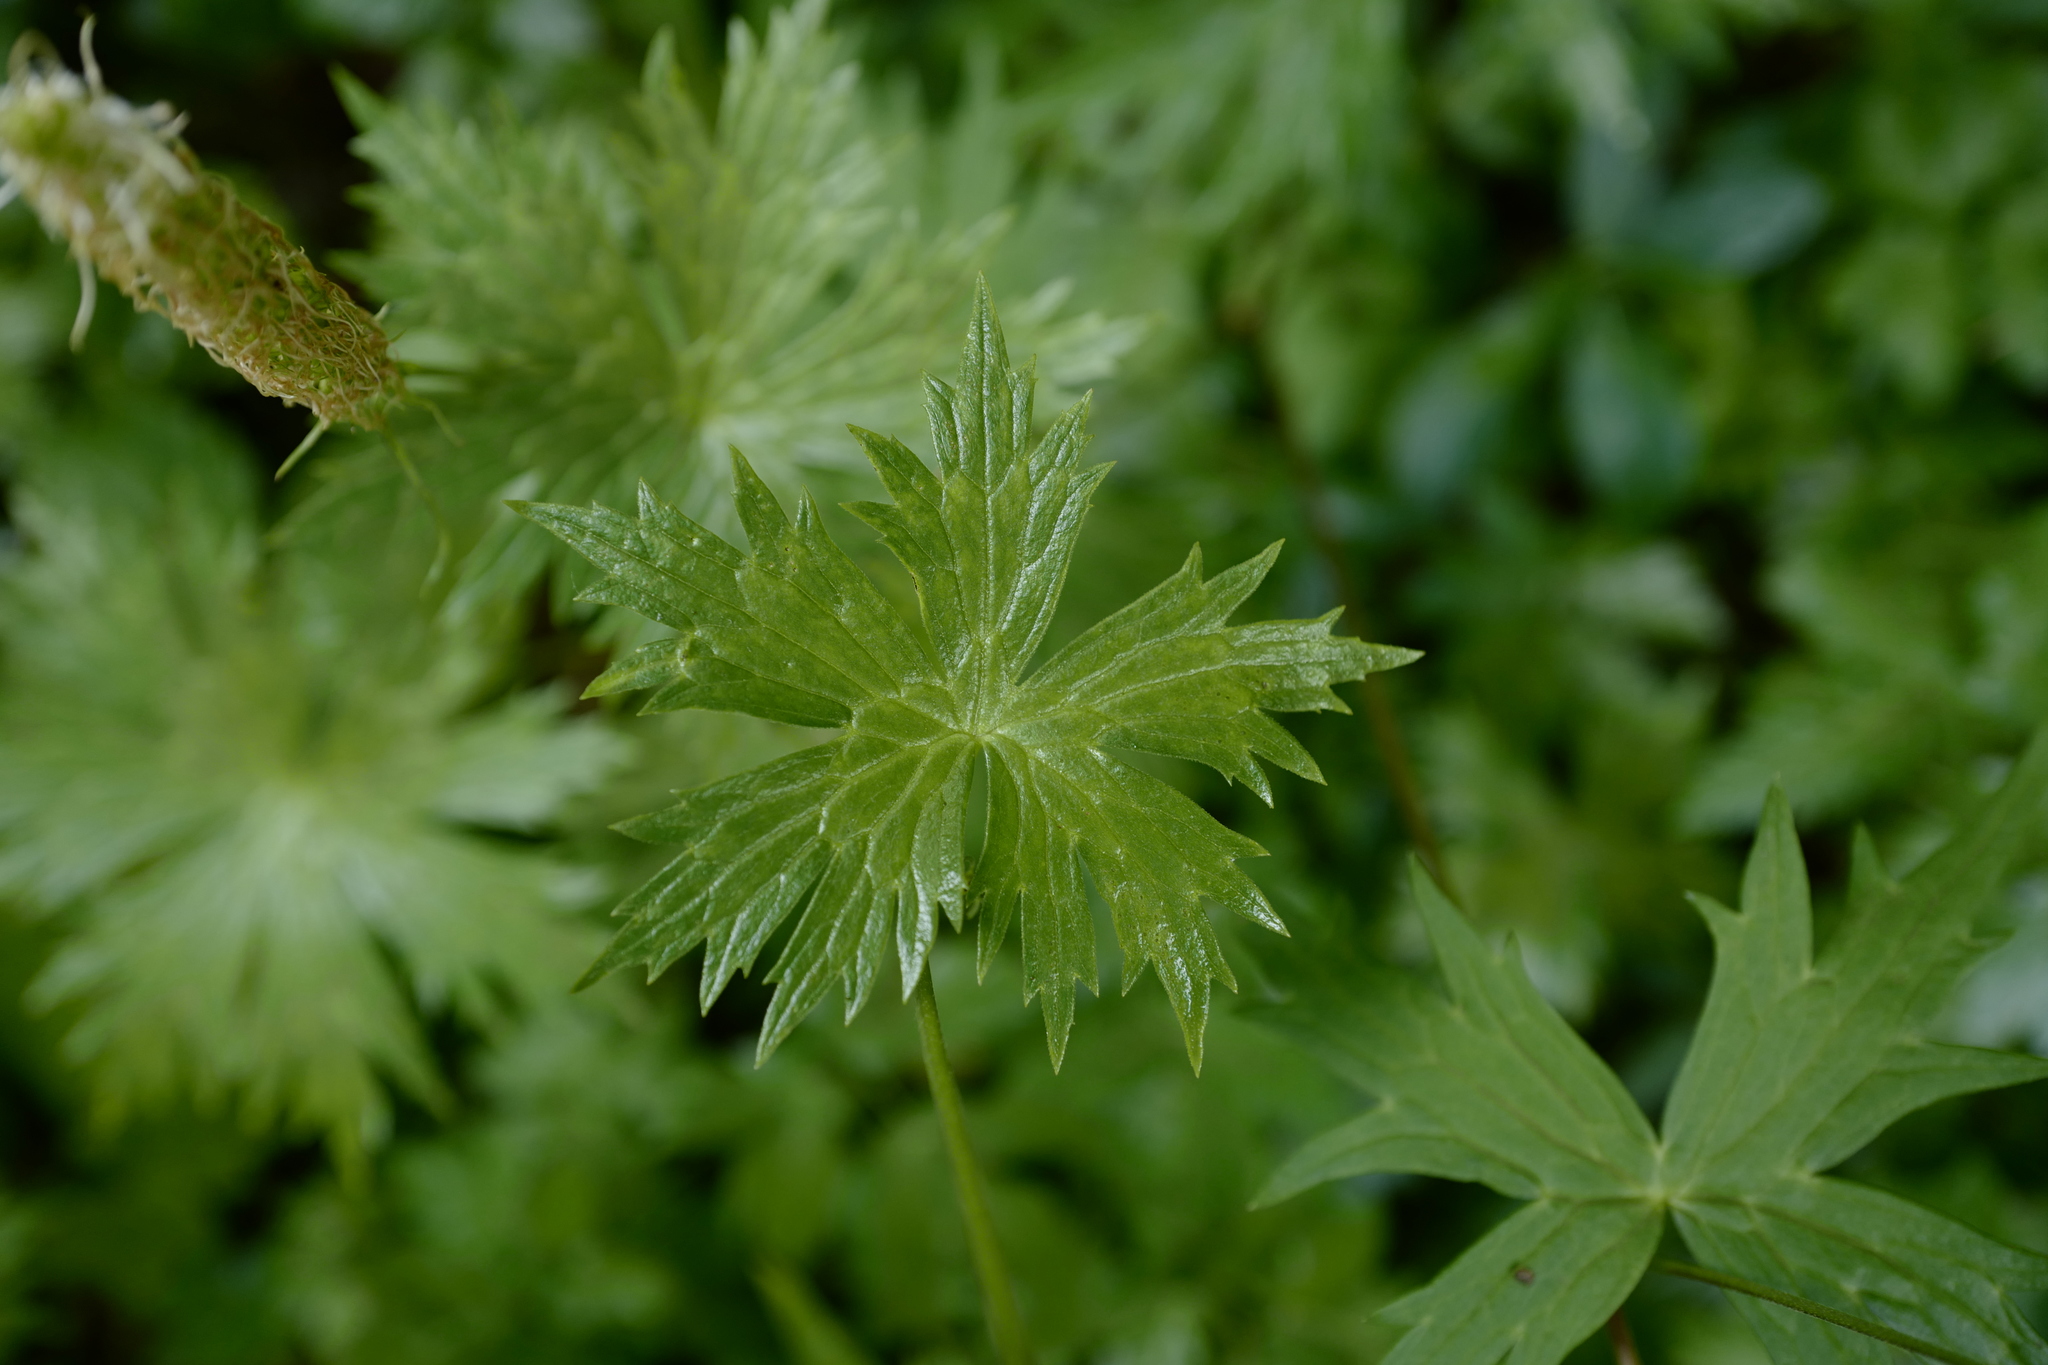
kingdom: Plantae
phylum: Tracheophyta
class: Magnoliopsida
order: Ranunculales
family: Ranunculaceae
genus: Aconitum
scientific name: Aconitum lycoctonum
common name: Wolf's-bane
